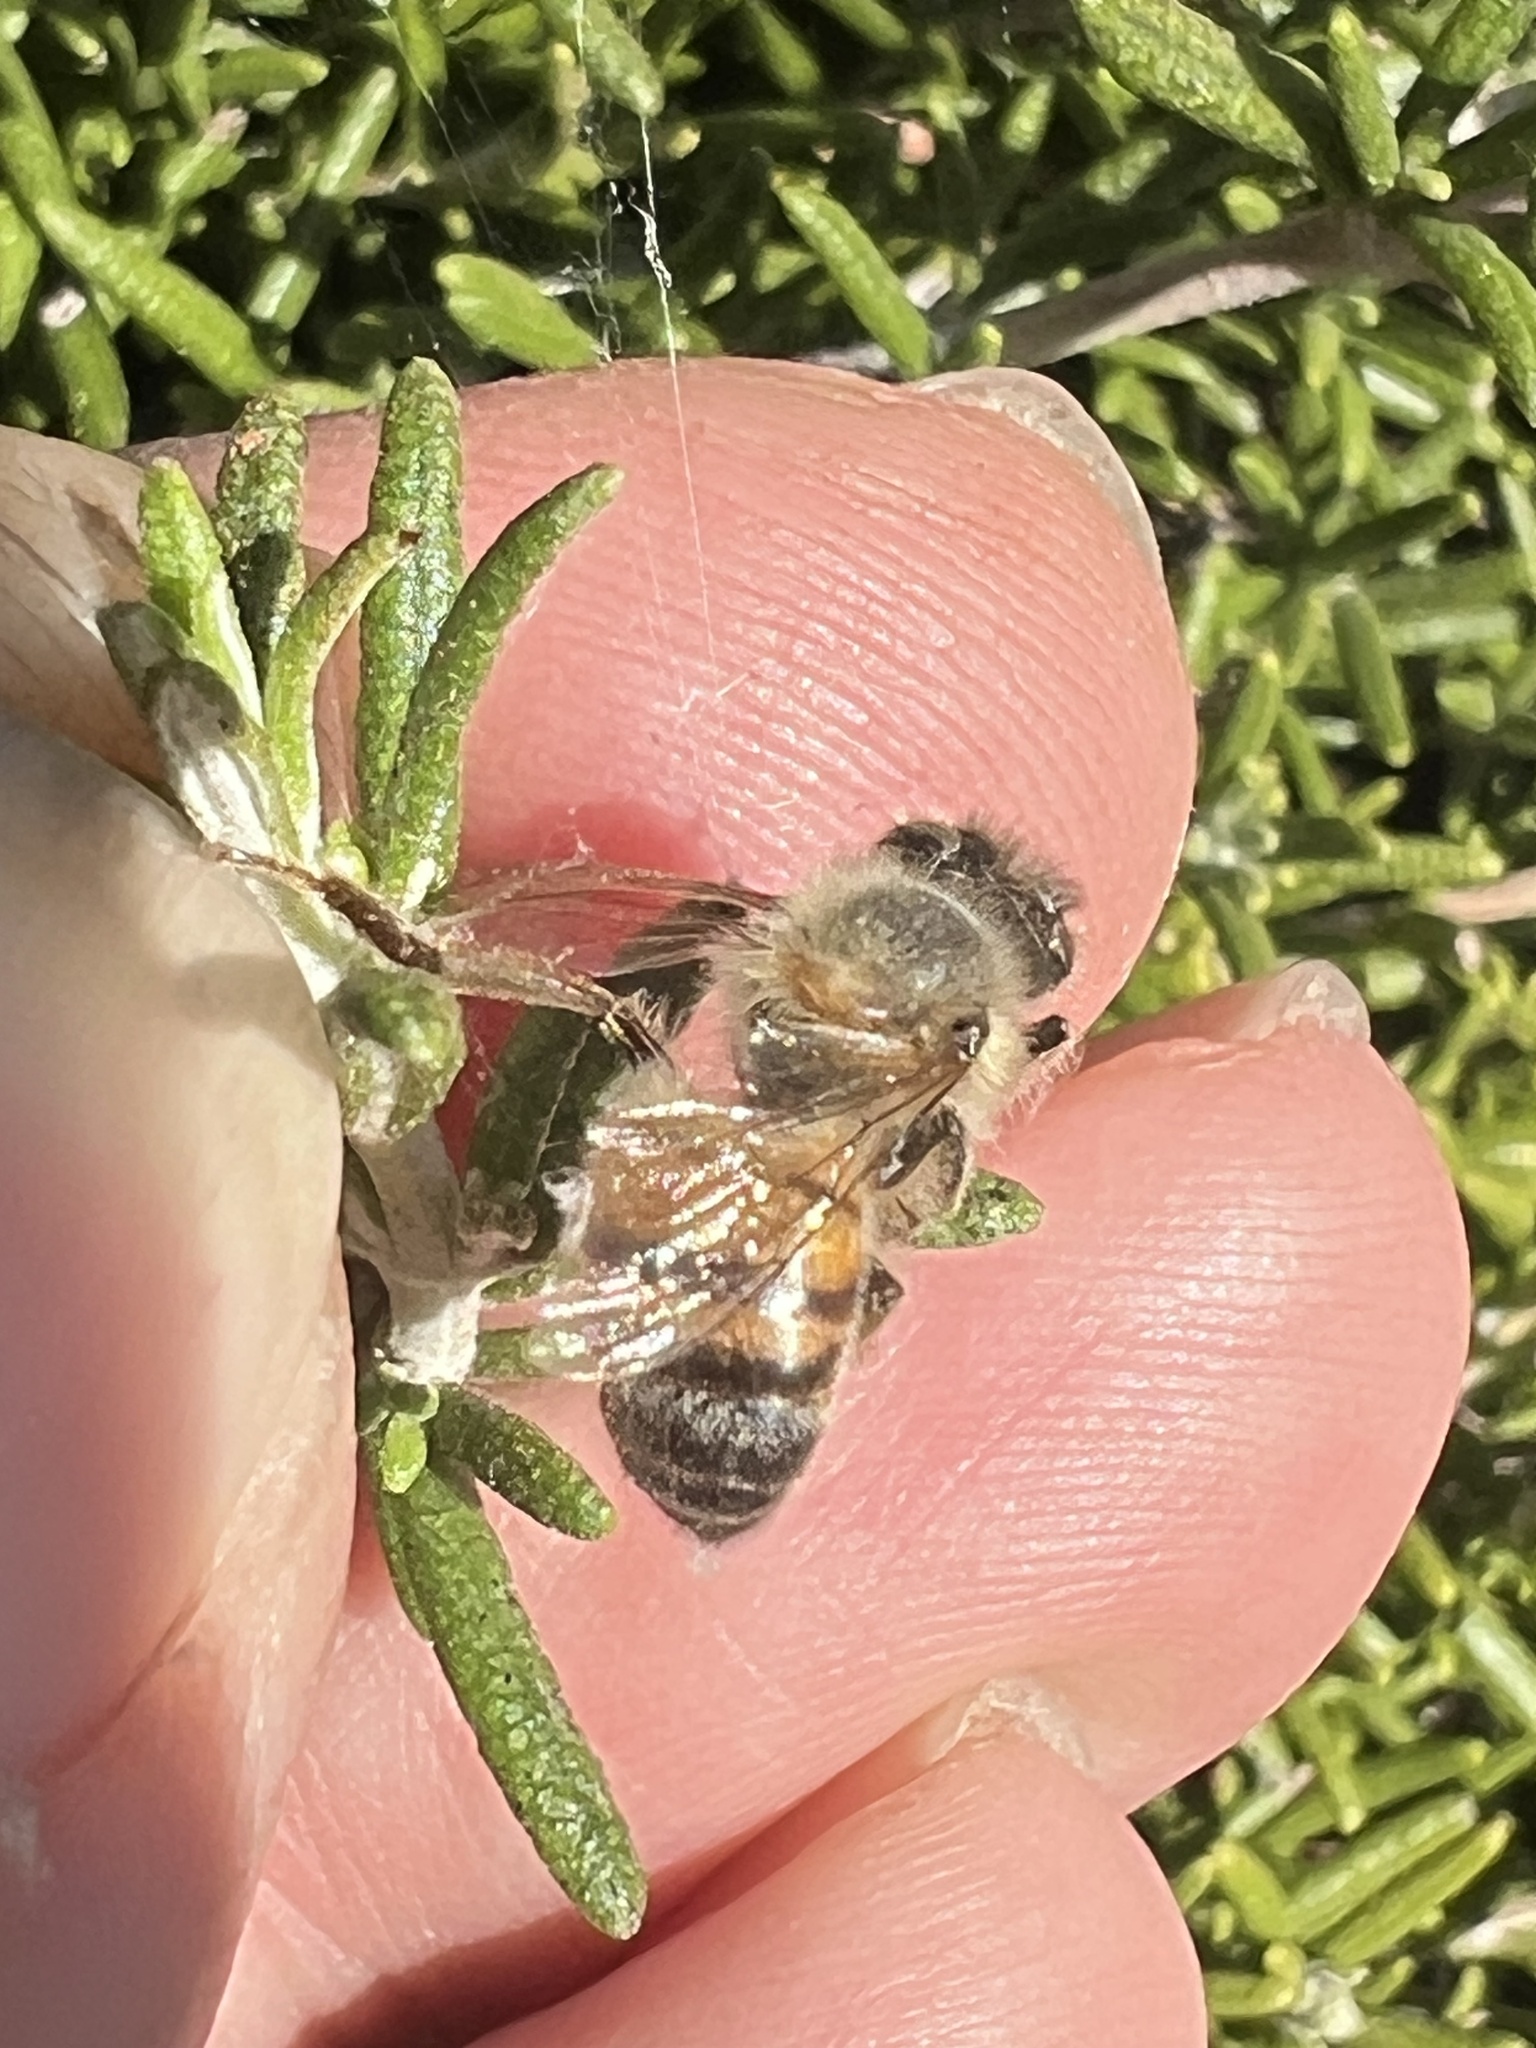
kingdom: Animalia
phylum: Arthropoda
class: Insecta
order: Hymenoptera
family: Apidae
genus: Apis
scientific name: Apis mellifera
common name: Honey bee
